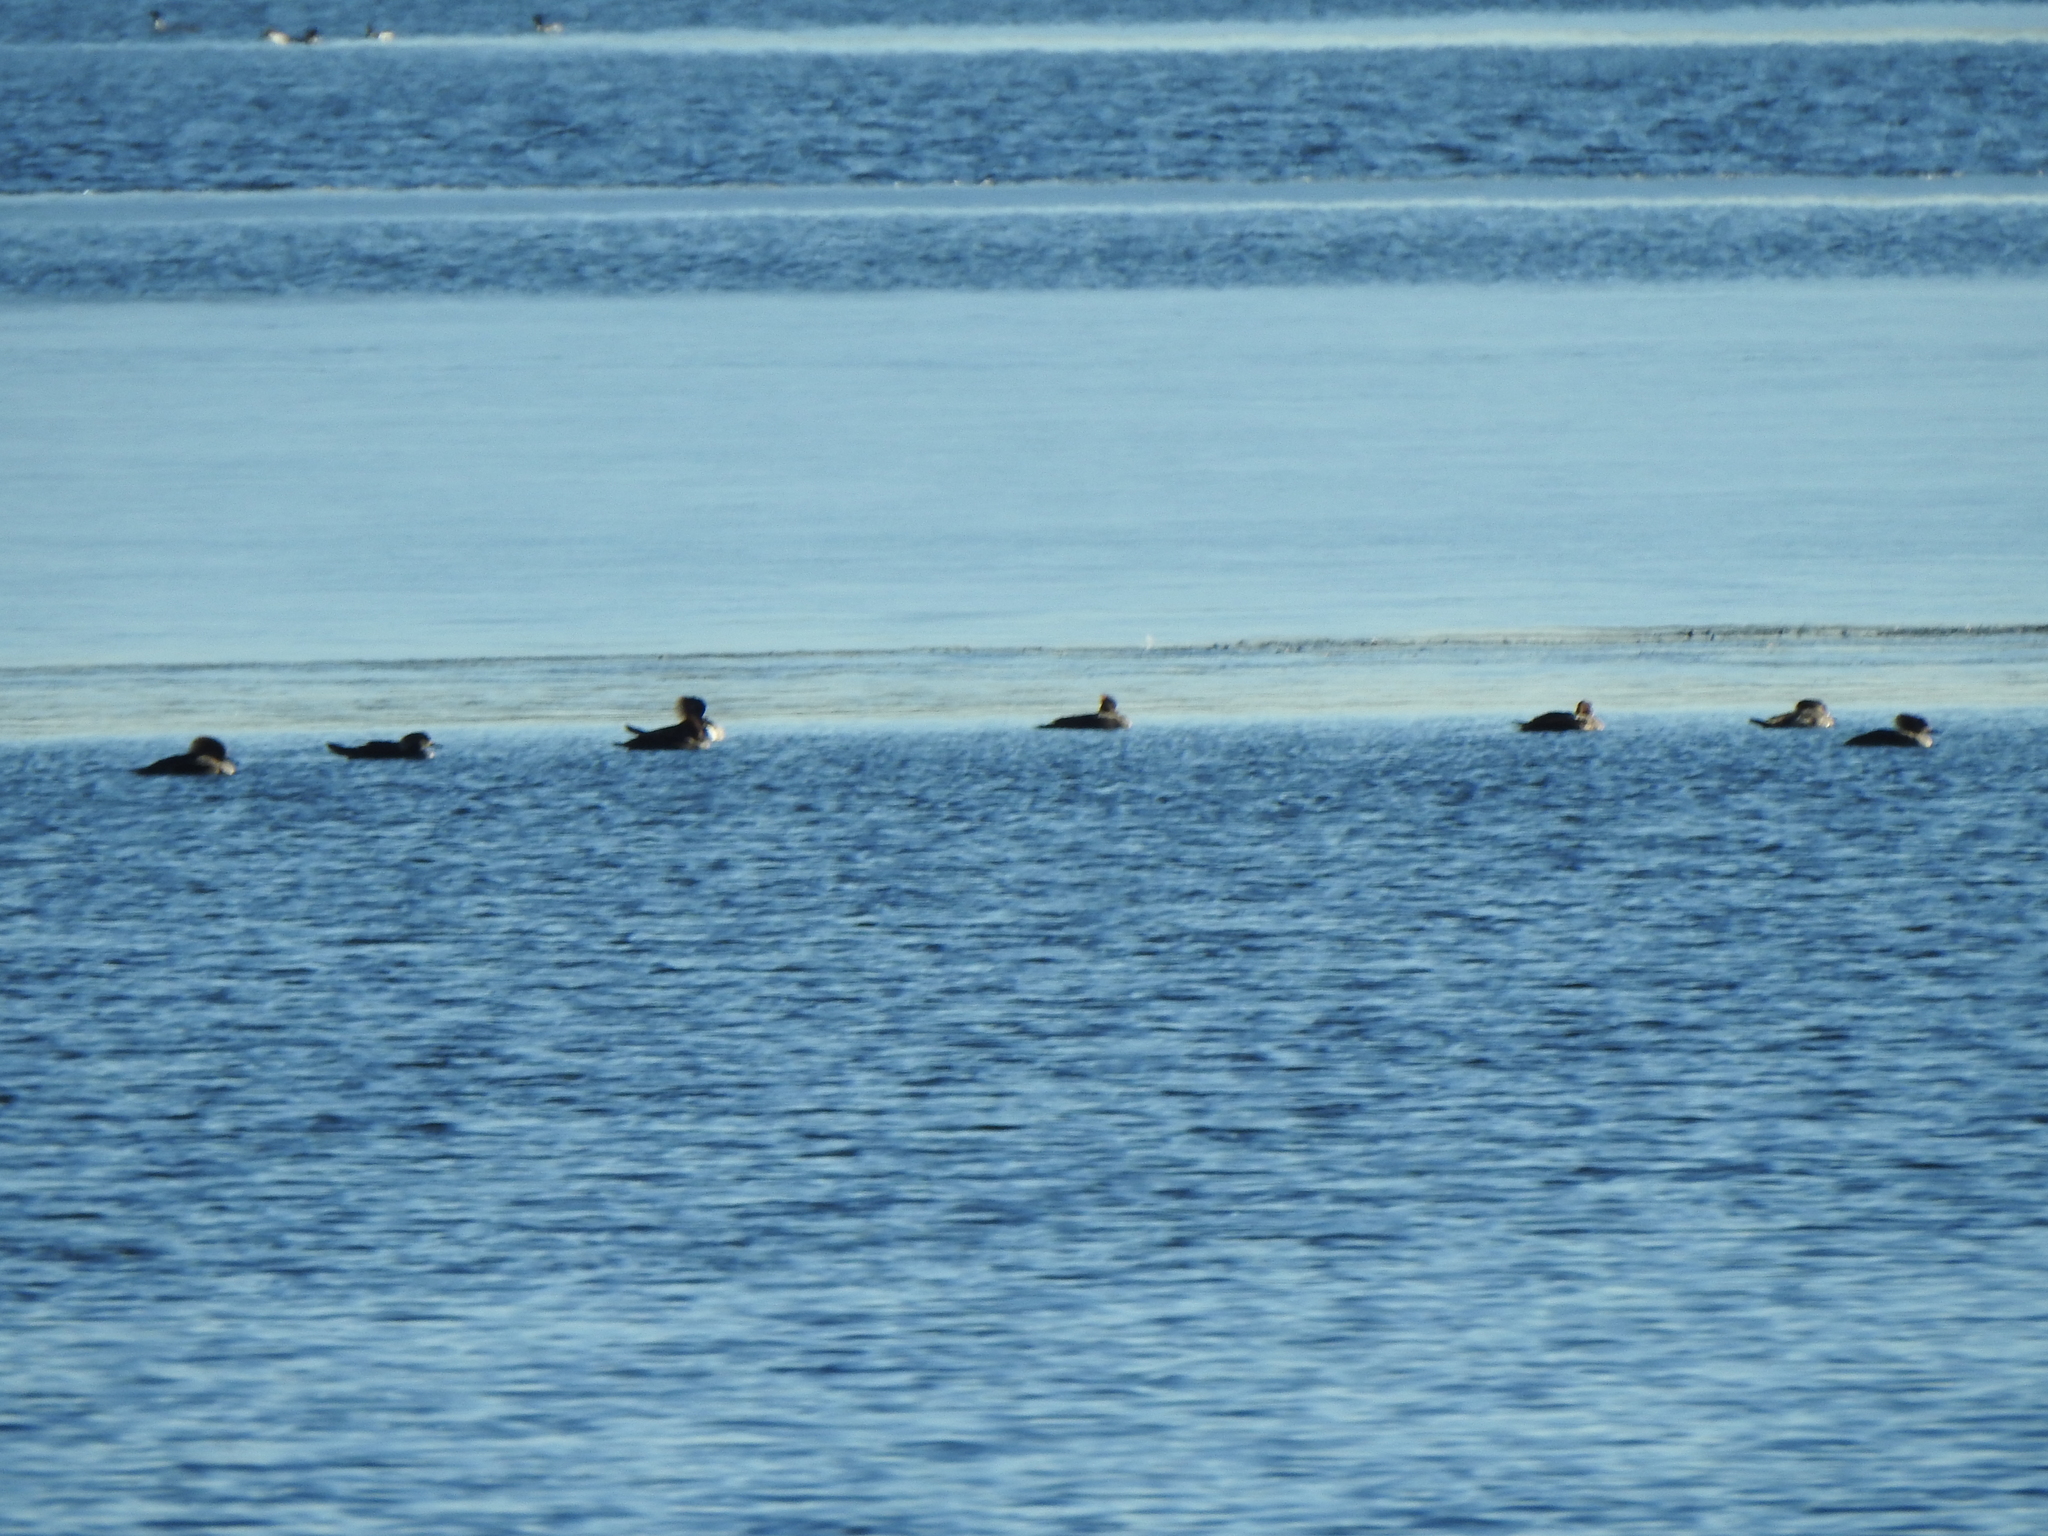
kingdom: Animalia
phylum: Chordata
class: Aves
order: Anseriformes
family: Anatidae
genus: Lophodytes
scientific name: Lophodytes cucullatus
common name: Hooded merganser
